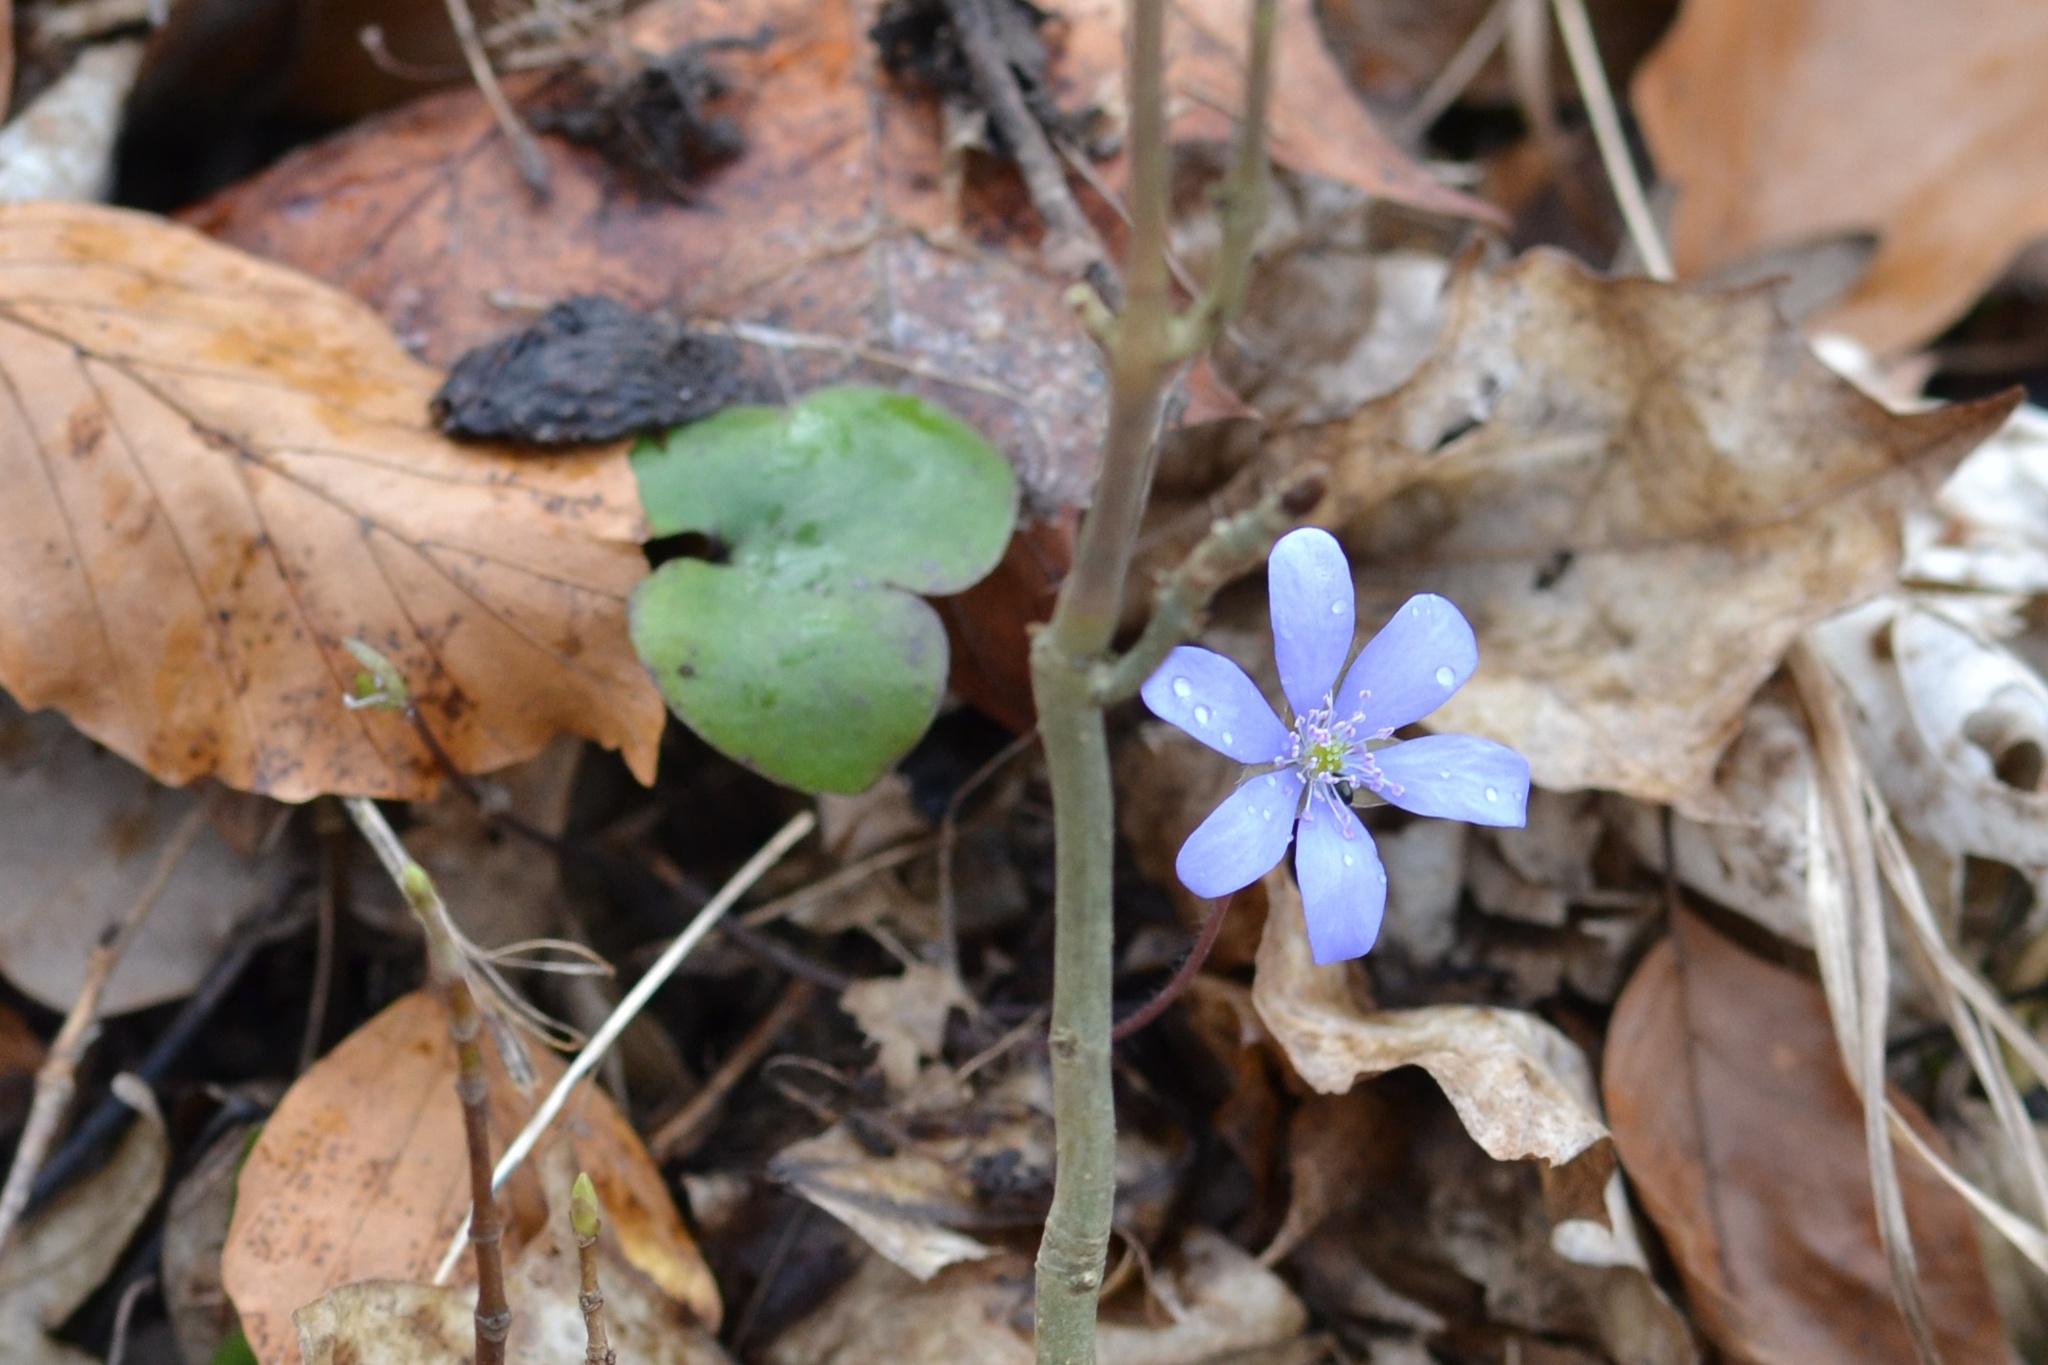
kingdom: Plantae
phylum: Tracheophyta
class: Magnoliopsida
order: Ranunculales
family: Ranunculaceae
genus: Hepatica
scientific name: Hepatica nobilis
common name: Liverleaf
